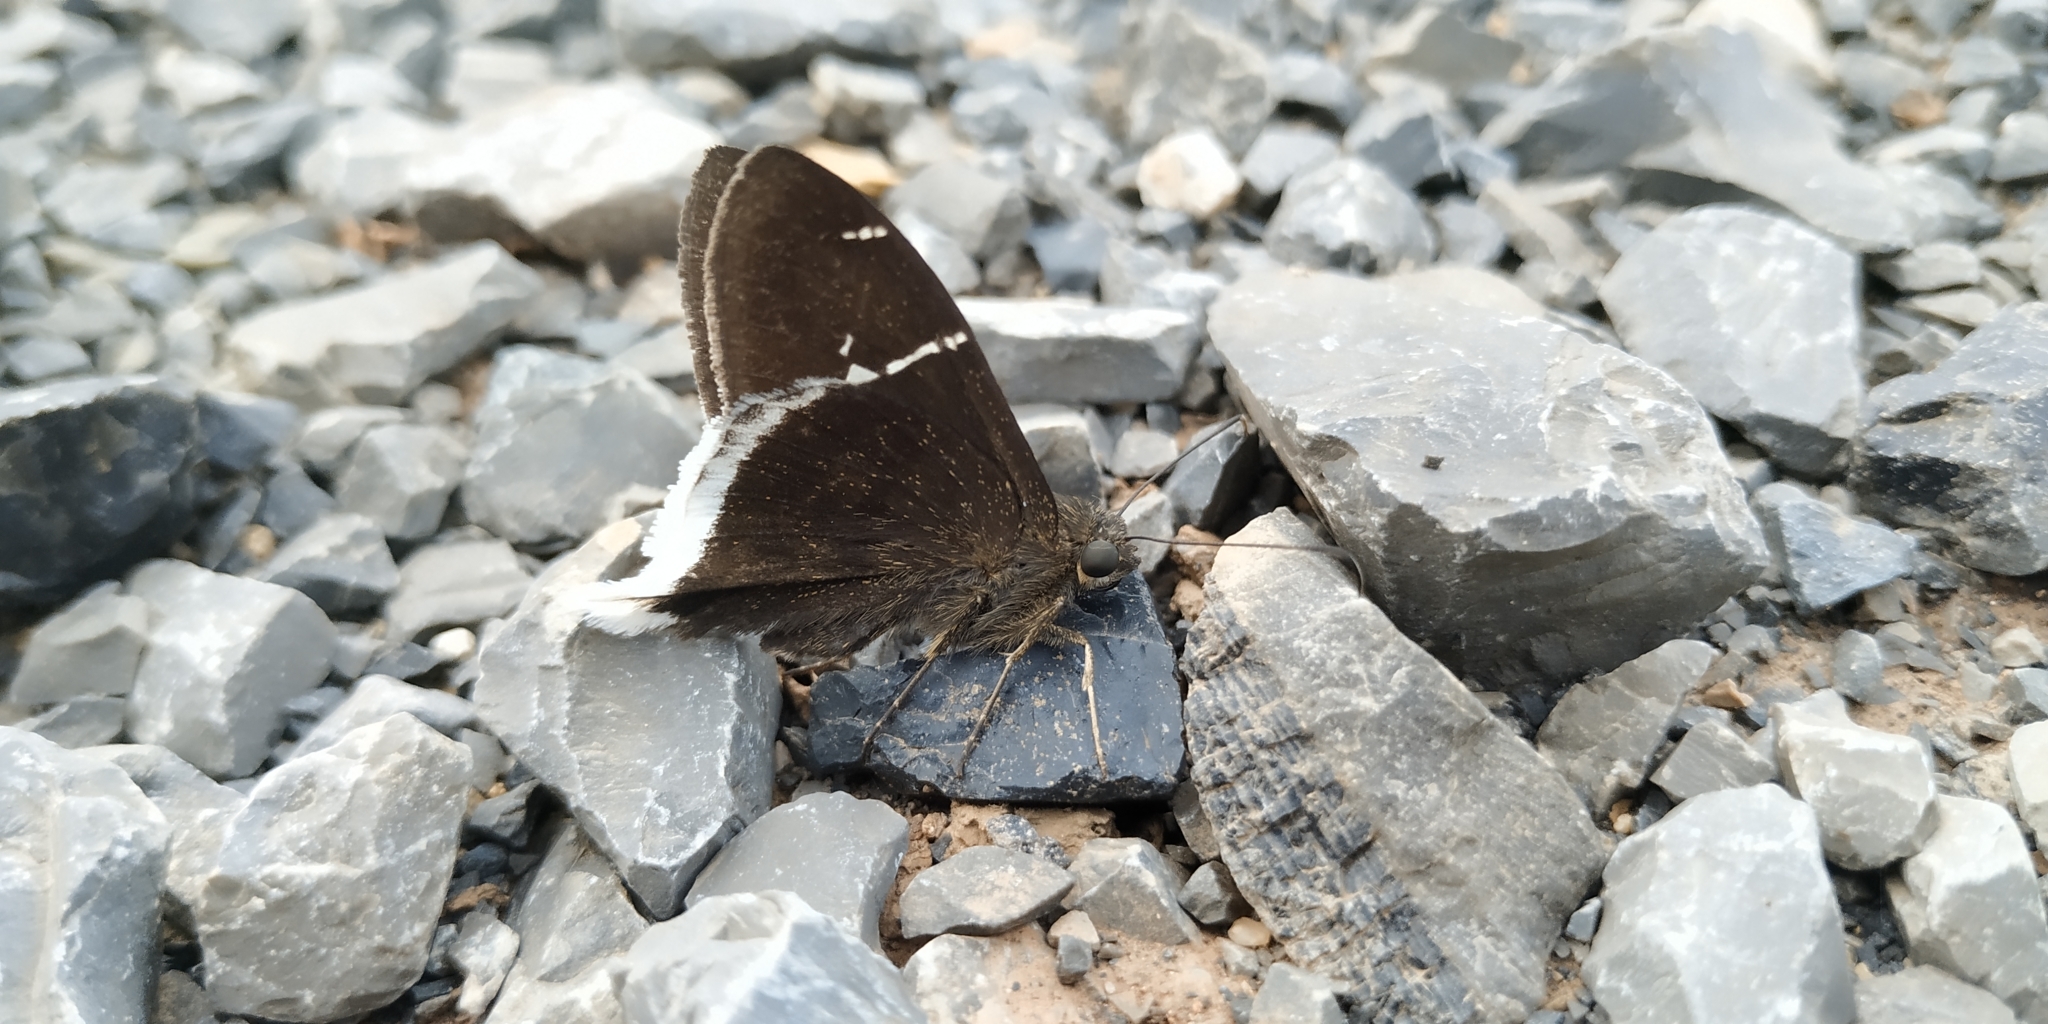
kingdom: Animalia
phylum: Arthropoda
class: Insecta
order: Lepidoptera
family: Hesperiidae
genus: Achalarus
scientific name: Achalarus
